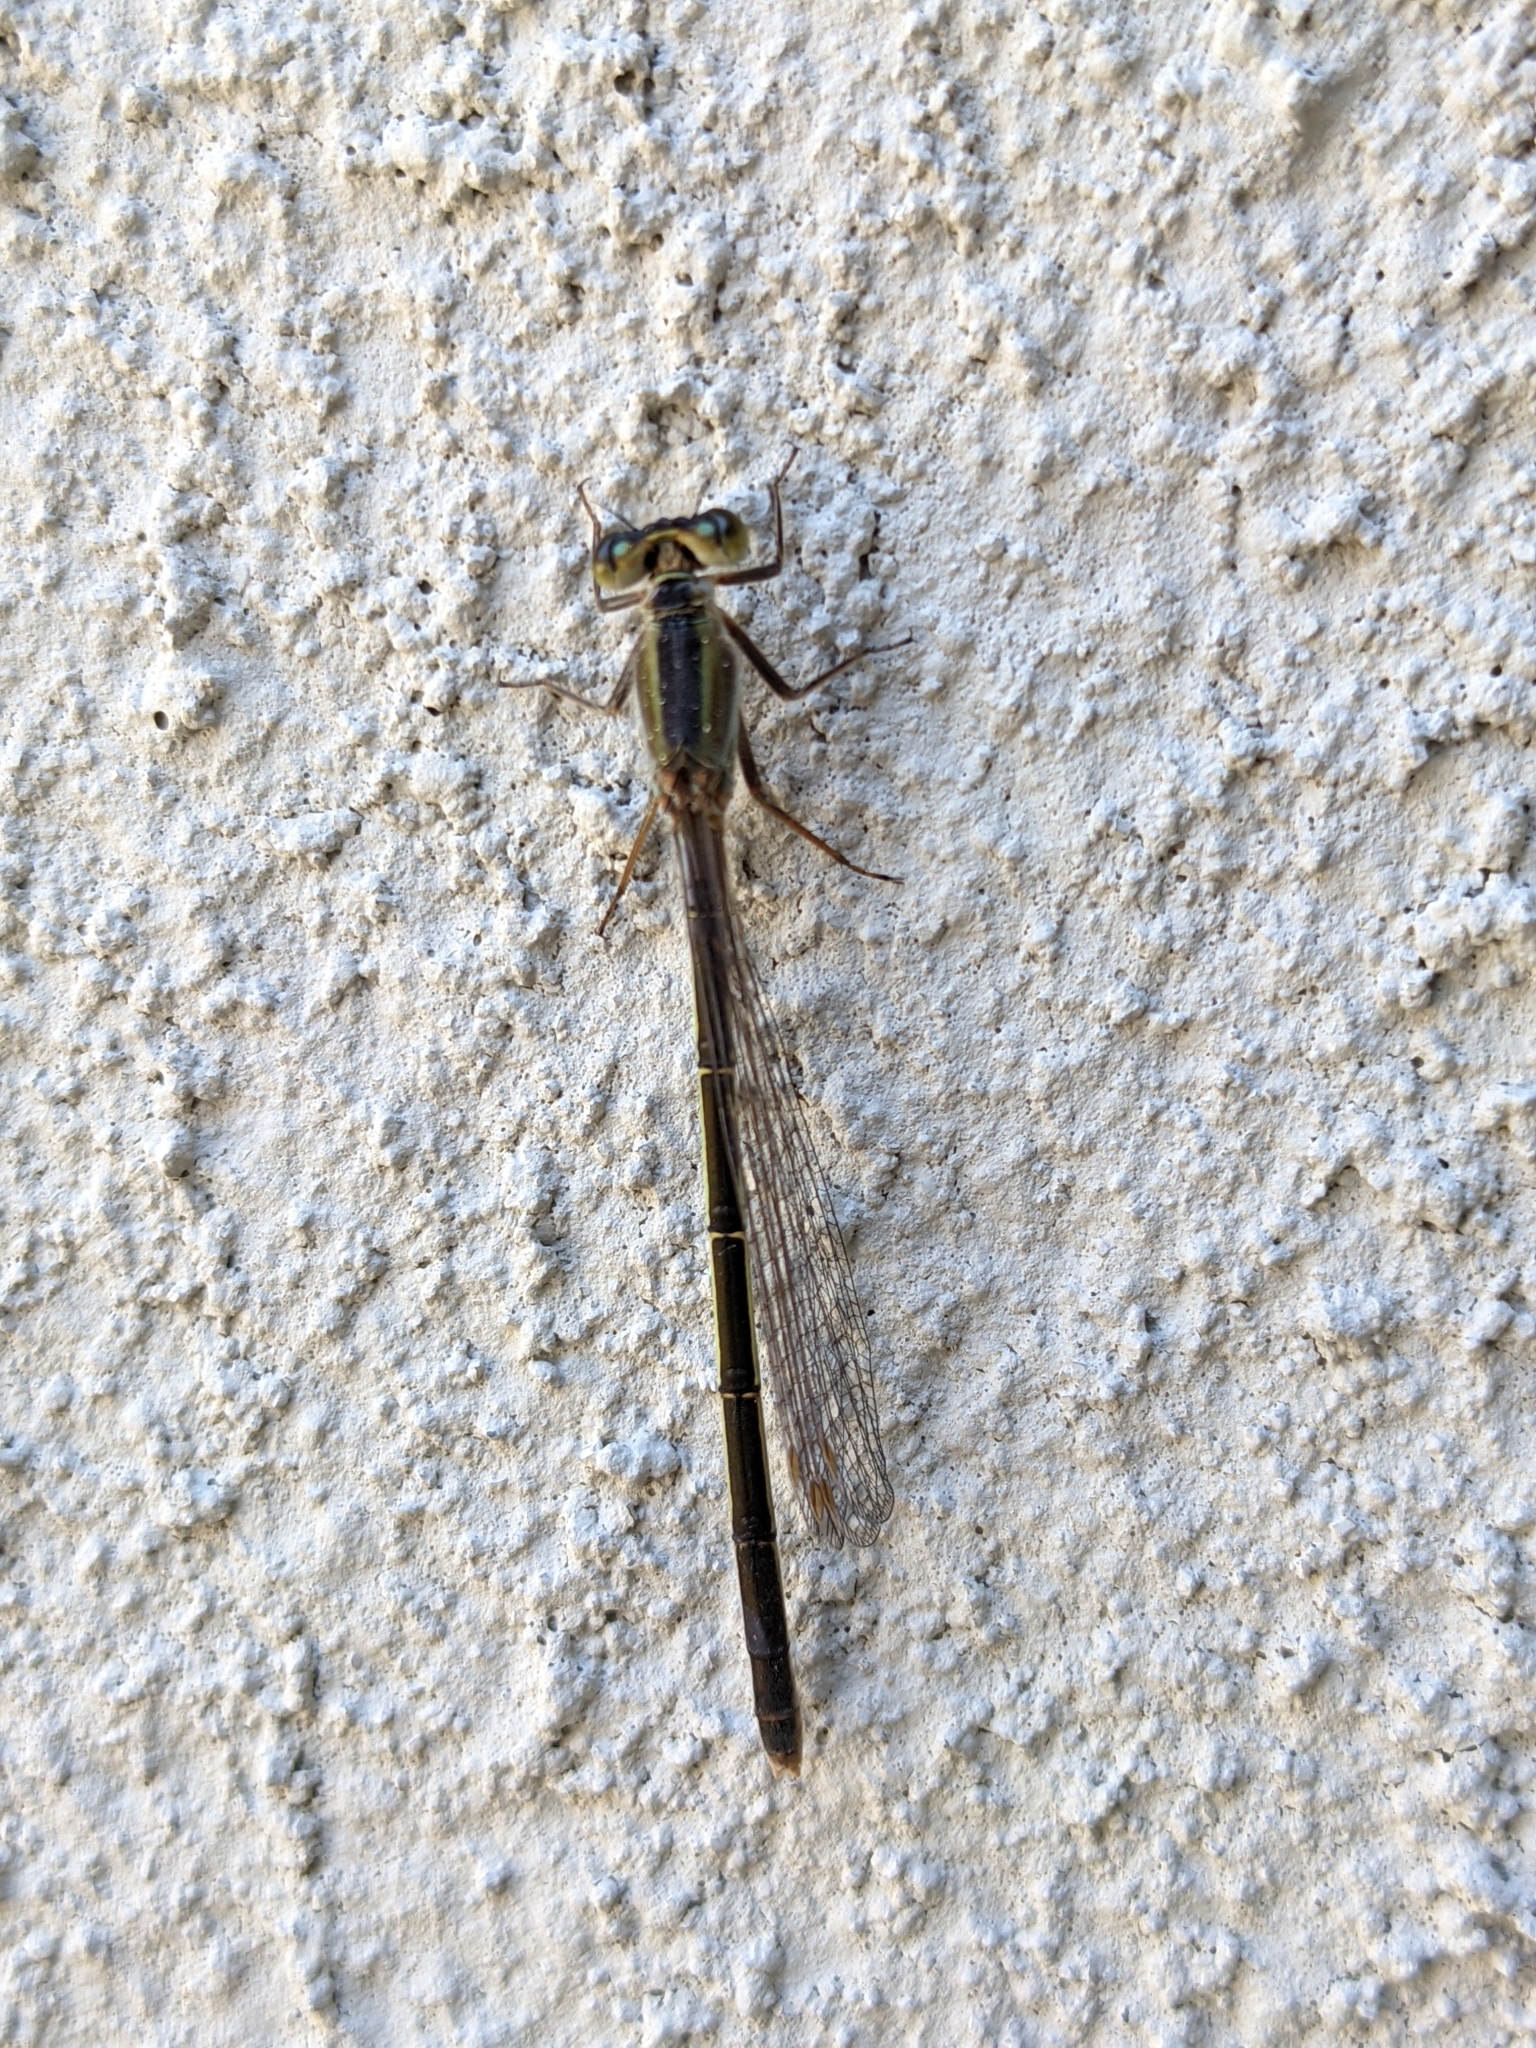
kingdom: Animalia
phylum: Arthropoda
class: Insecta
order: Odonata
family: Coenagrionidae
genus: Ischnura
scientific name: Ischnura ramburii
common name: Rambur's forktail
